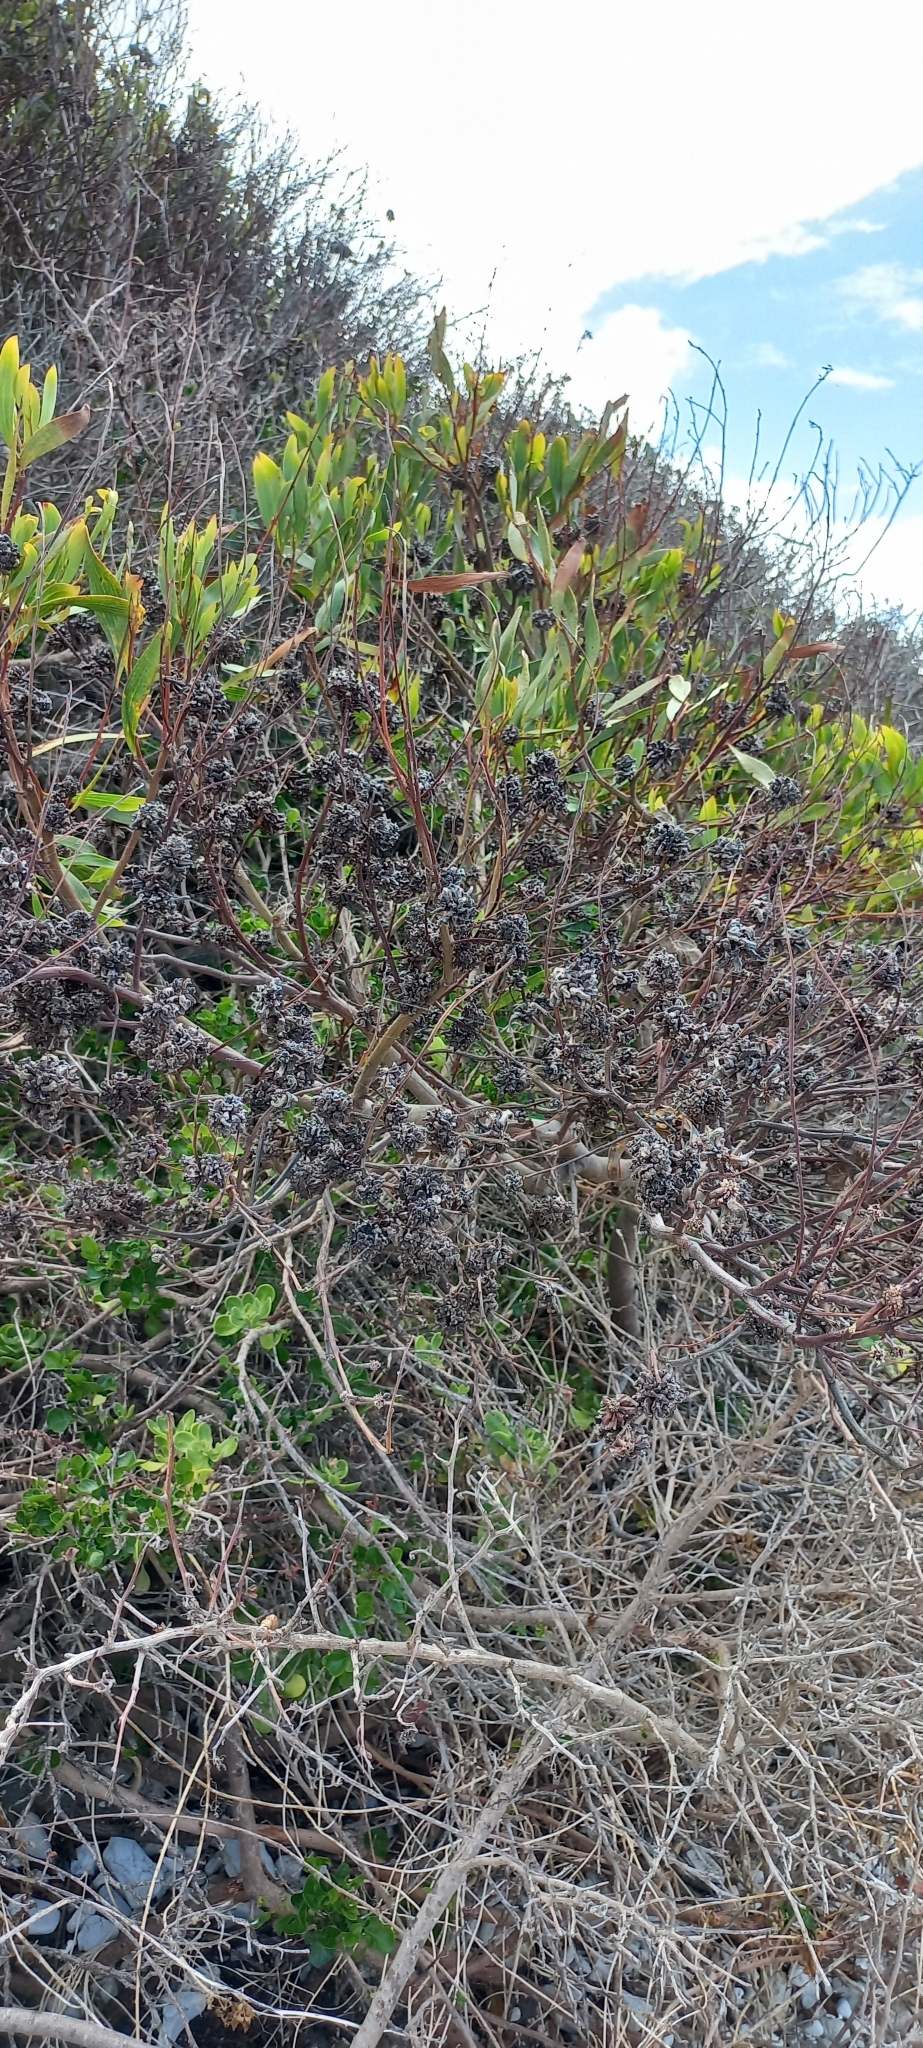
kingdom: Plantae
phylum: Tracheophyta
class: Magnoliopsida
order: Fabales
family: Fabaceae
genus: Acacia
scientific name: Acacia cyclops
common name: Coastal wattle
